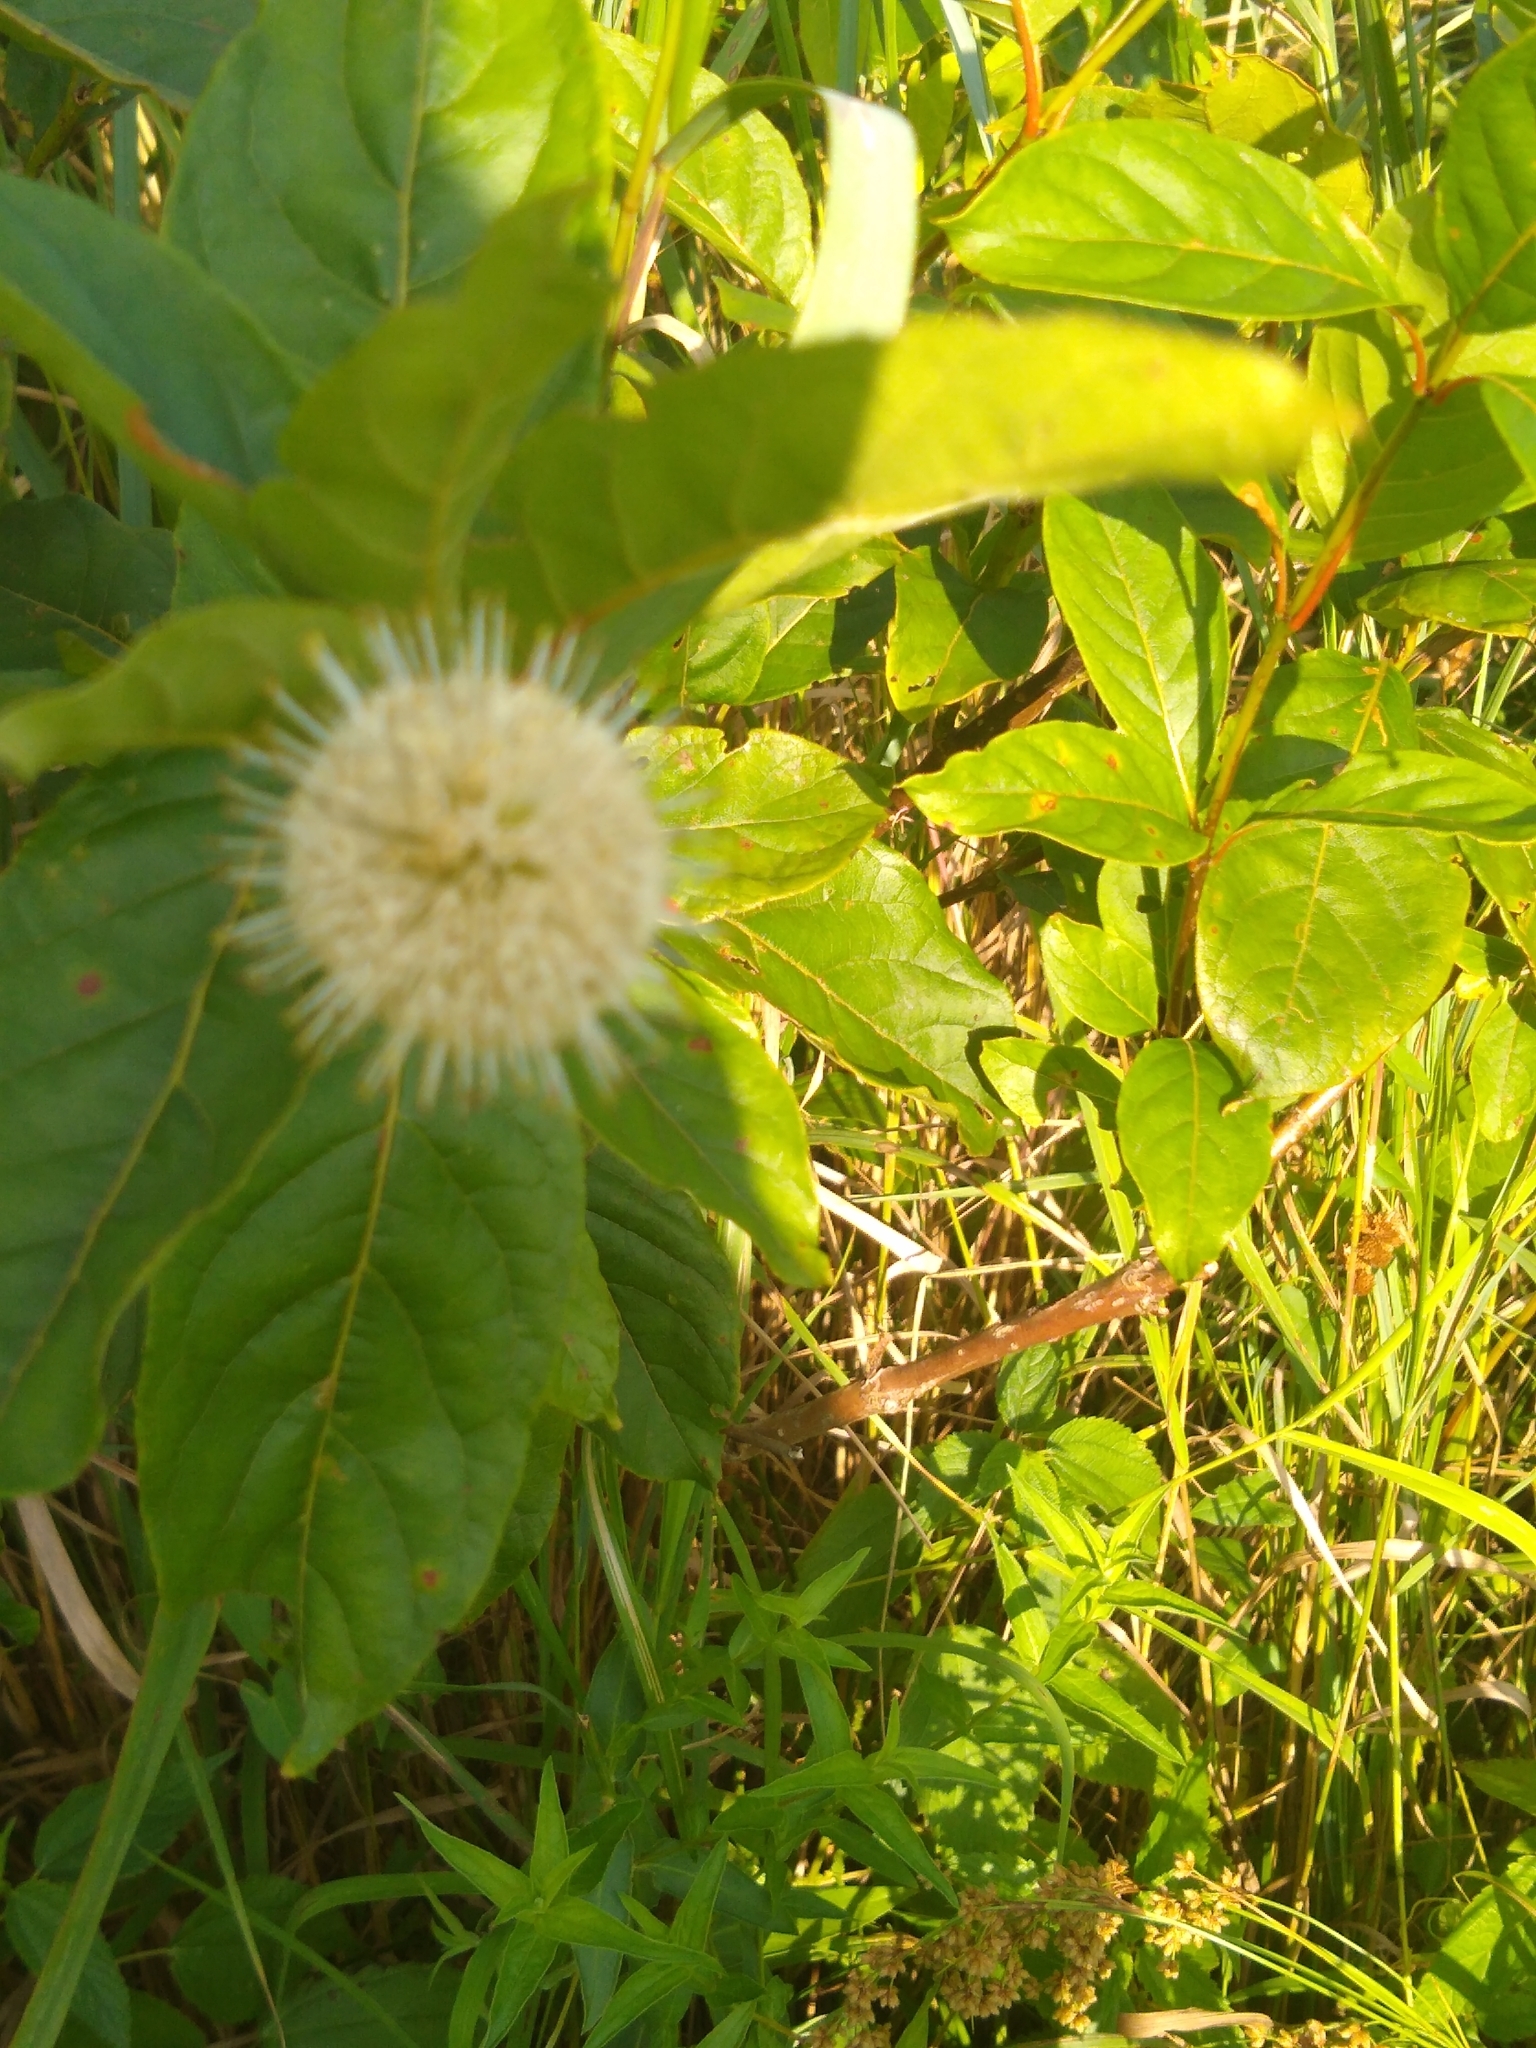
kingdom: Plantae
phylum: Tracheophyta
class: Magnoliopsida
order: Gentianales
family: Rubiaceae
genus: Cephalanthus
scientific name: Cephalanthus occidentalis
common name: Button-willow
